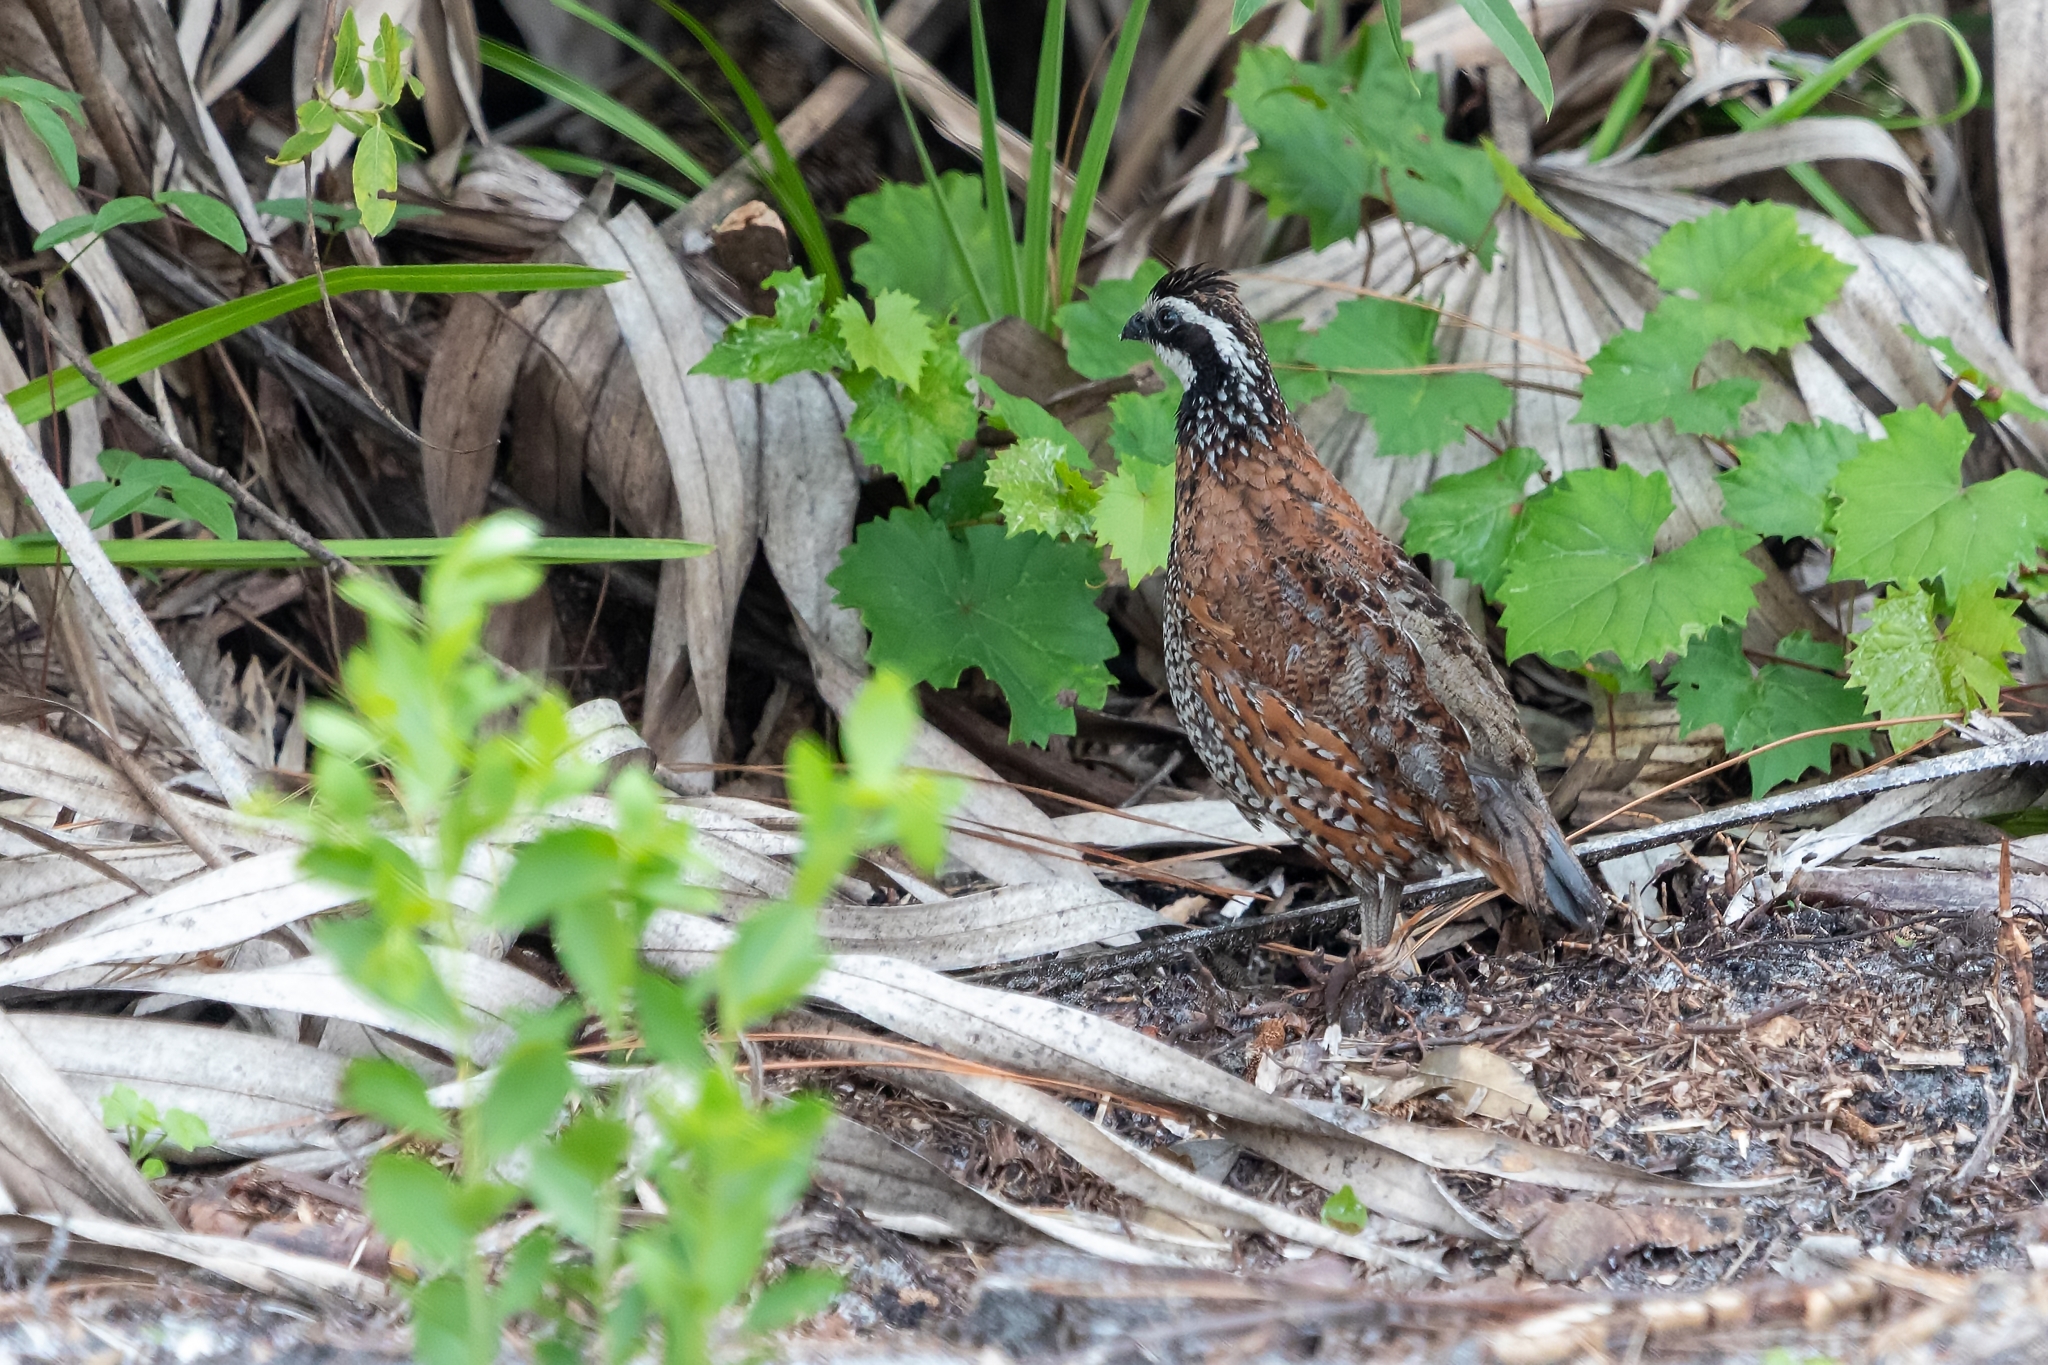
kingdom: Animalia
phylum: Chordata
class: Aves
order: Galliformes
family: Odontophoridae
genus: Colinus
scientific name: Colinus virginianus
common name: Northern bobwhite
